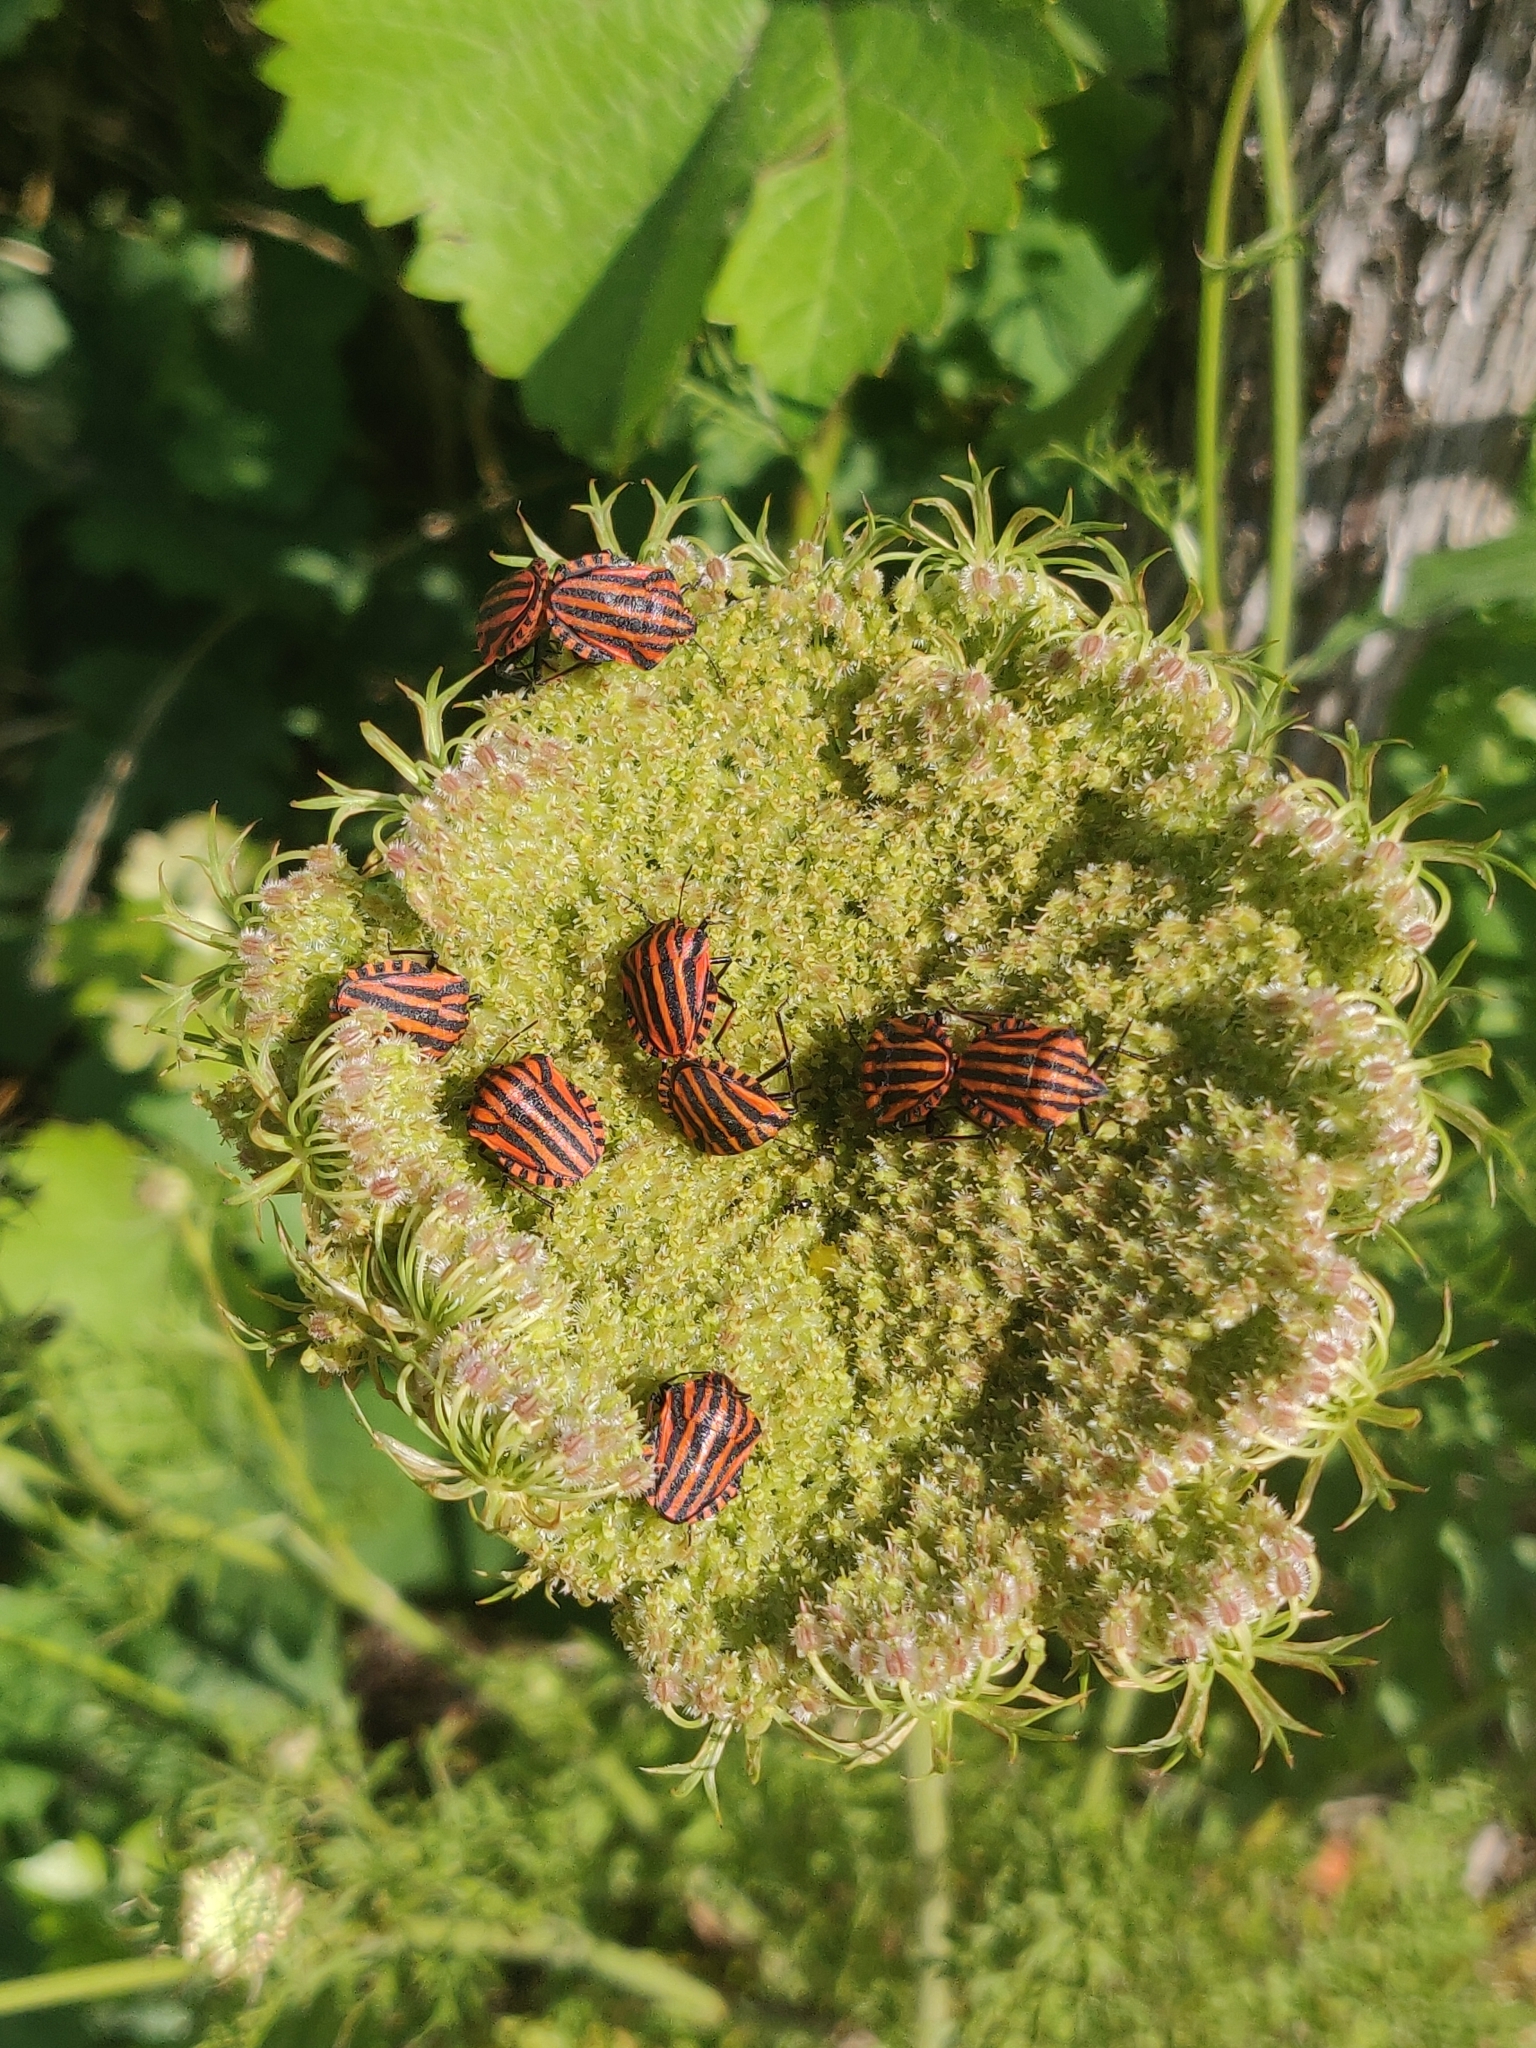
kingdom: Animalia
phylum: Arthropoda
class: Insecta
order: Hemiptera
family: Pentatomidae
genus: Graphosoma
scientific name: Graphosoma italicum
